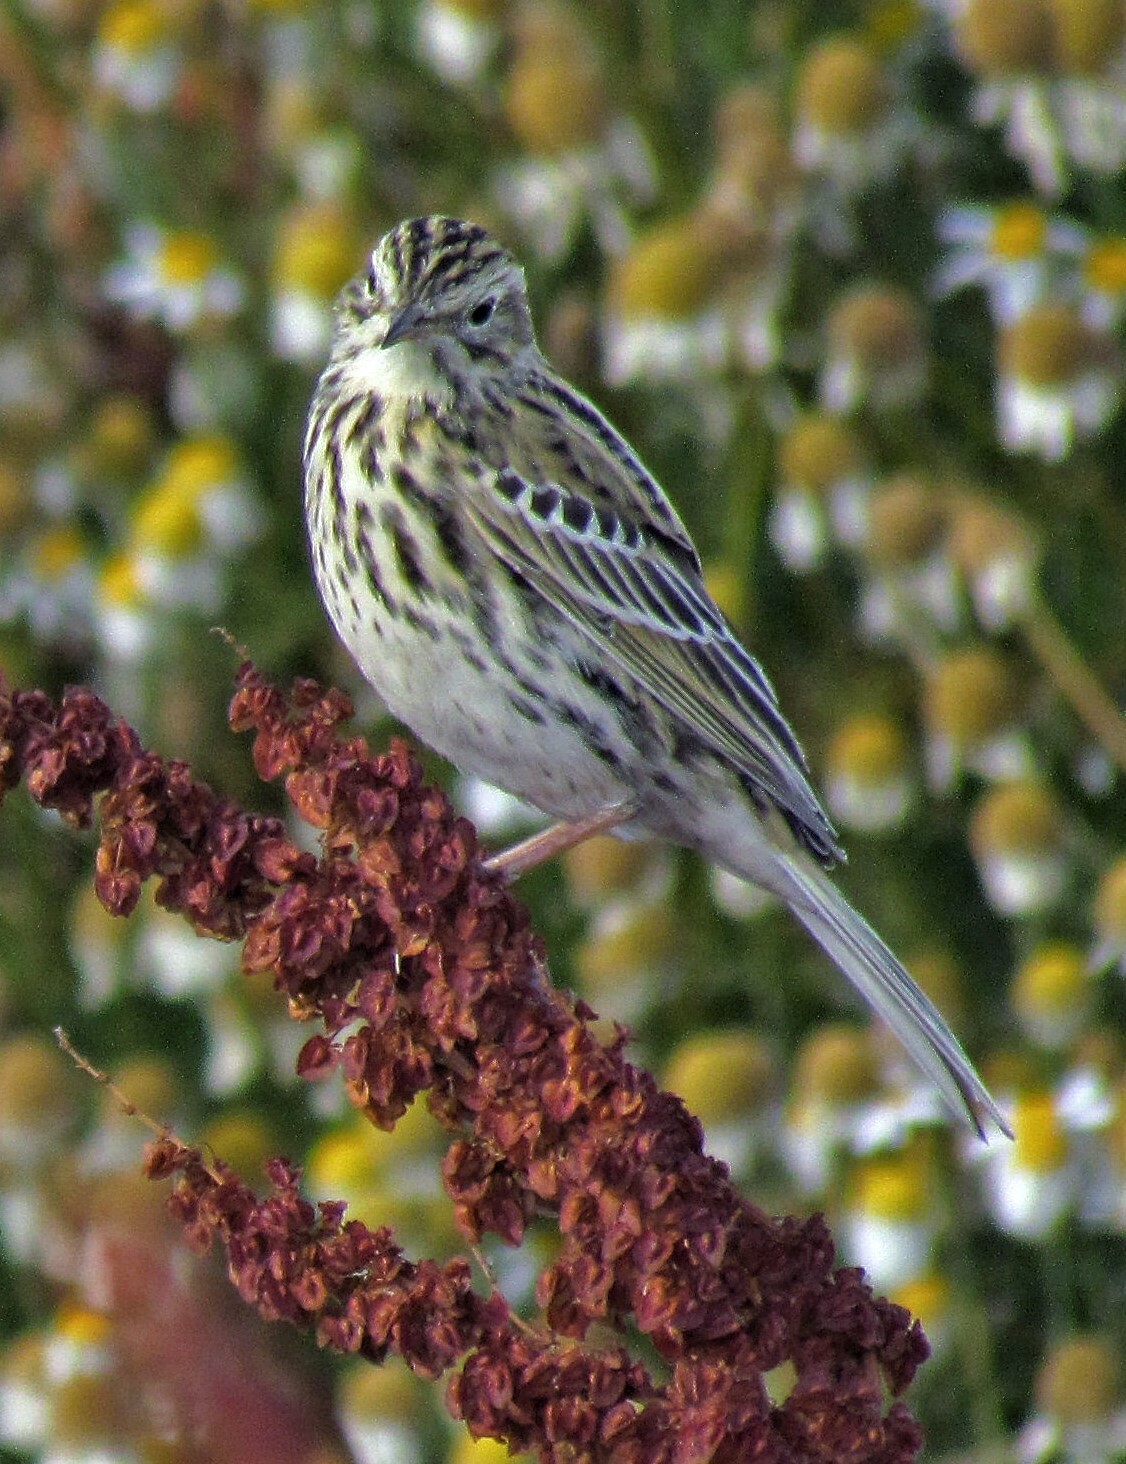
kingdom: Animalia
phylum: Chordata
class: Aves
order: Passeriformes
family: Motacillidae
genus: Anthus
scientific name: Anthus correndera
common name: Correndera pipit
